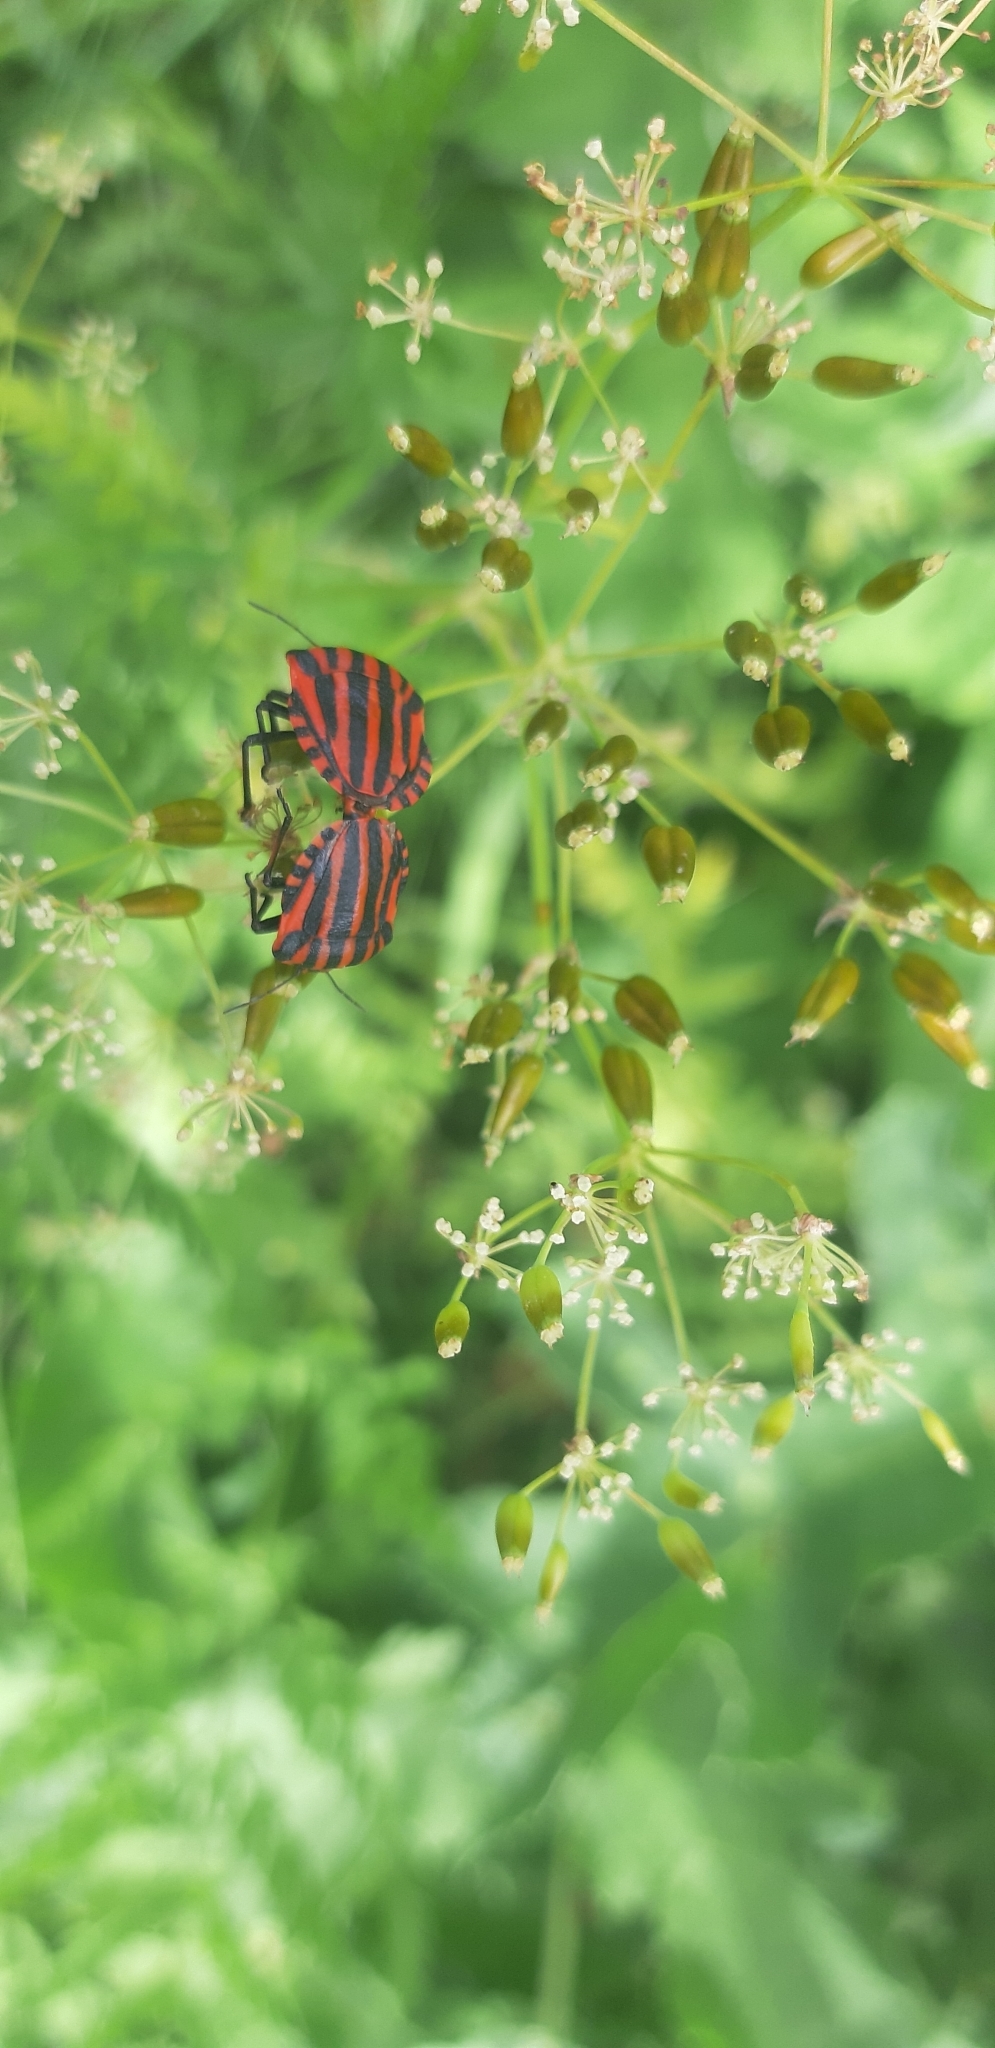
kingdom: Animalia
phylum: Arthropoda
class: Insecta
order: Hemiptera
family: Pentatomidae
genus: Graphosoma
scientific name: Graphosoma italicum
